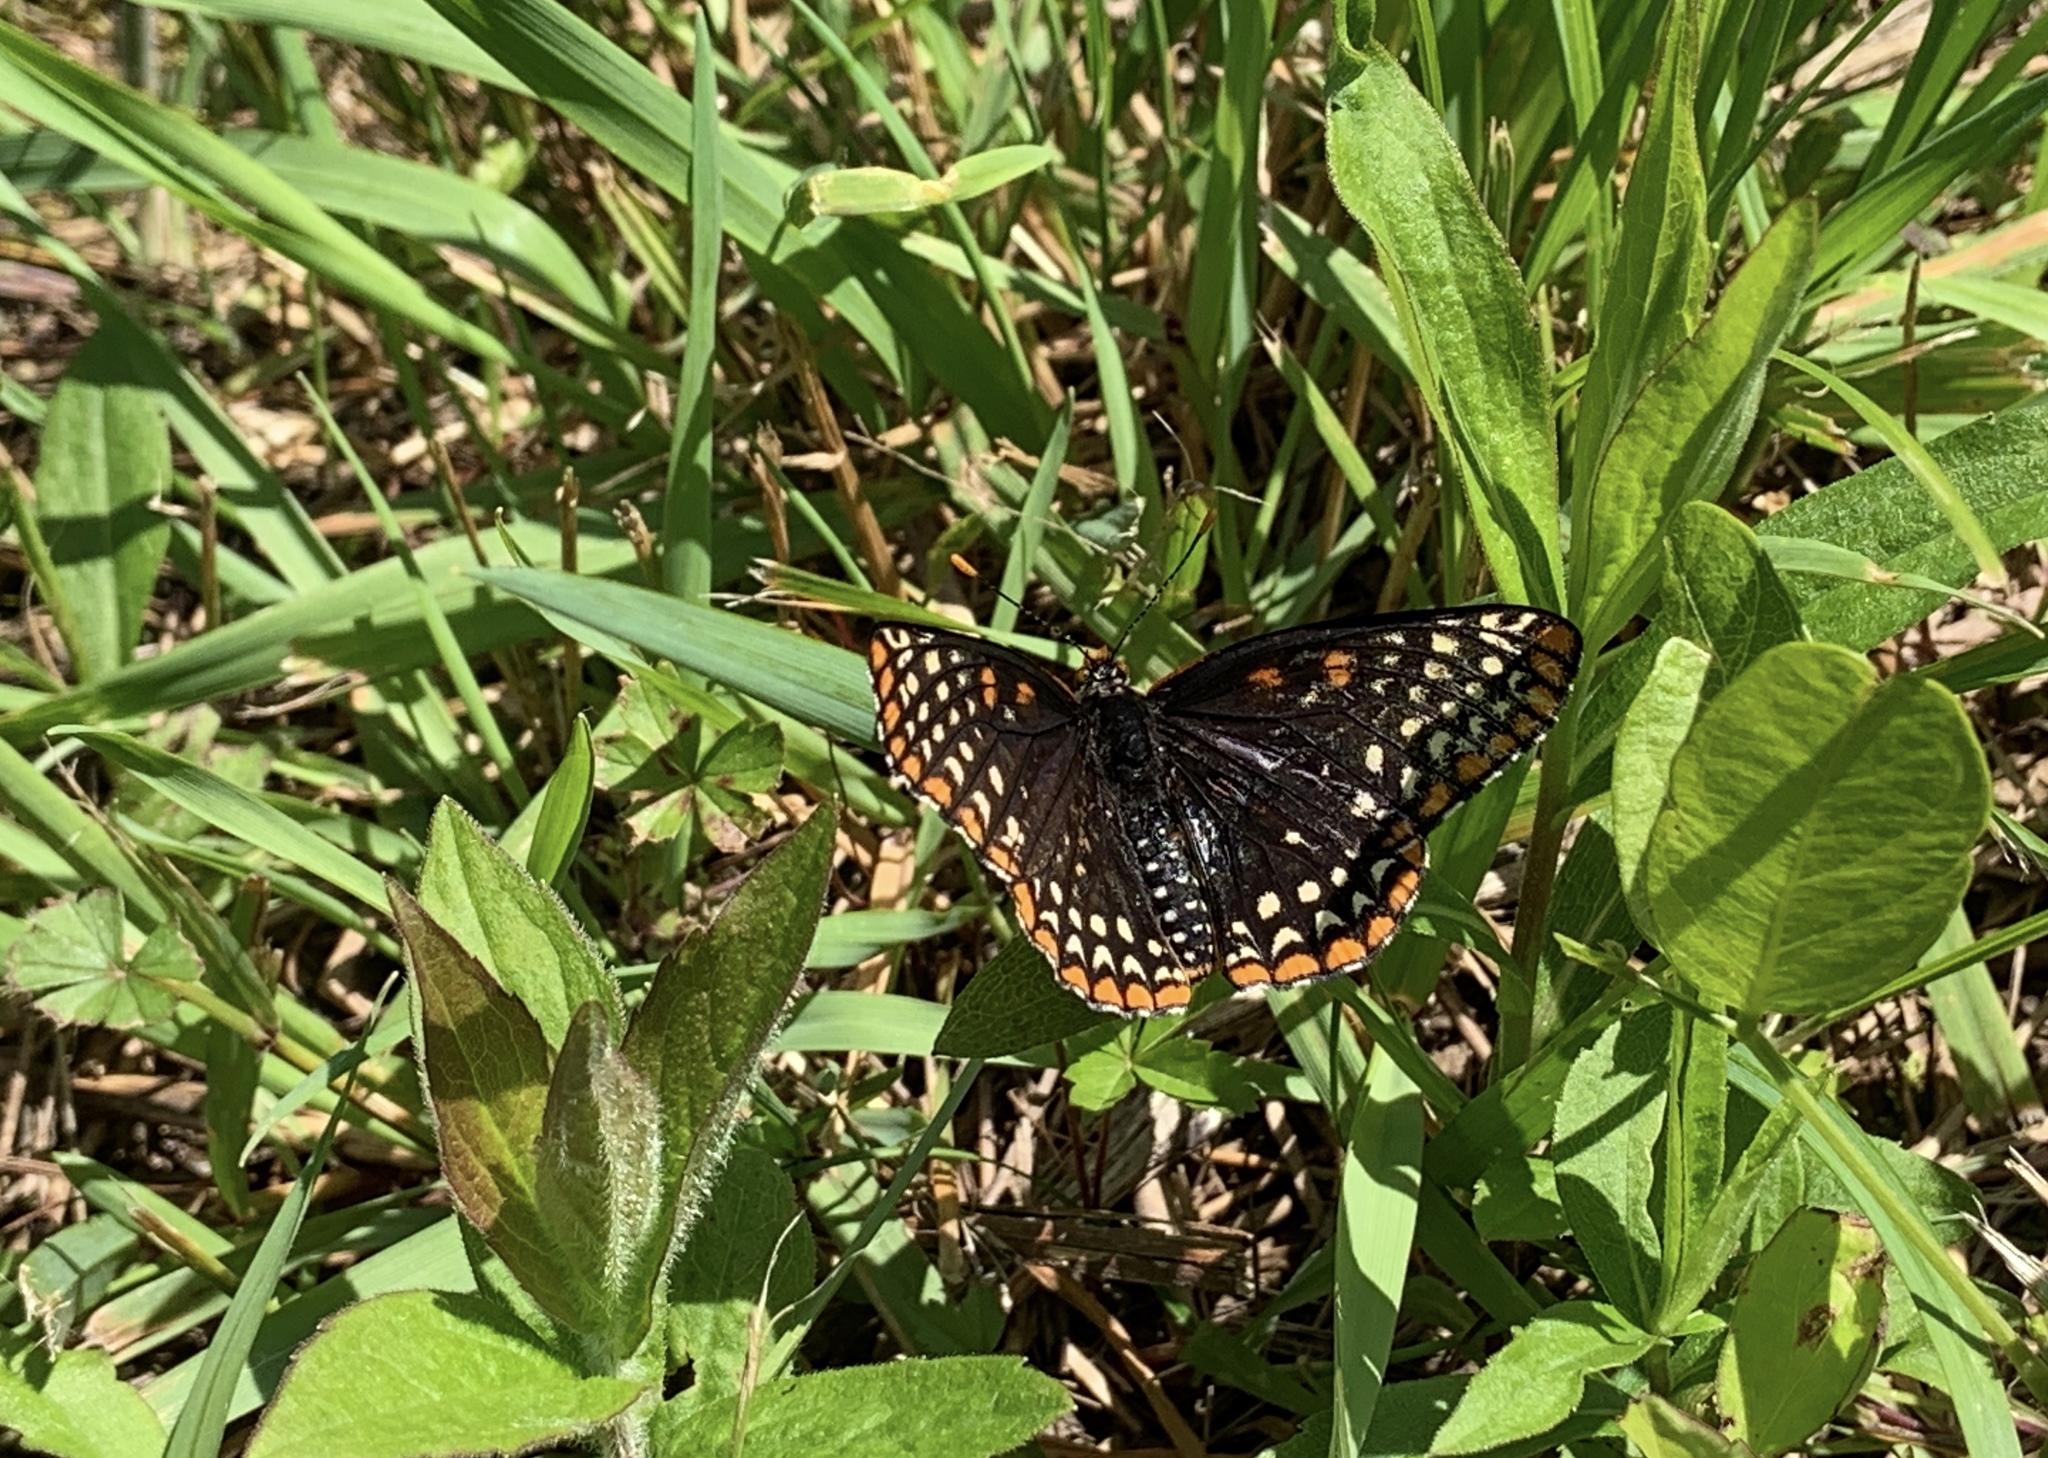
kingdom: Animalia
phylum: Arthropoda
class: Insecta
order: Lepidoptera
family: Nymphalidae
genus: Euphydryas
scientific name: Euphydryas phaeton
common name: Baltimore checkerspot
